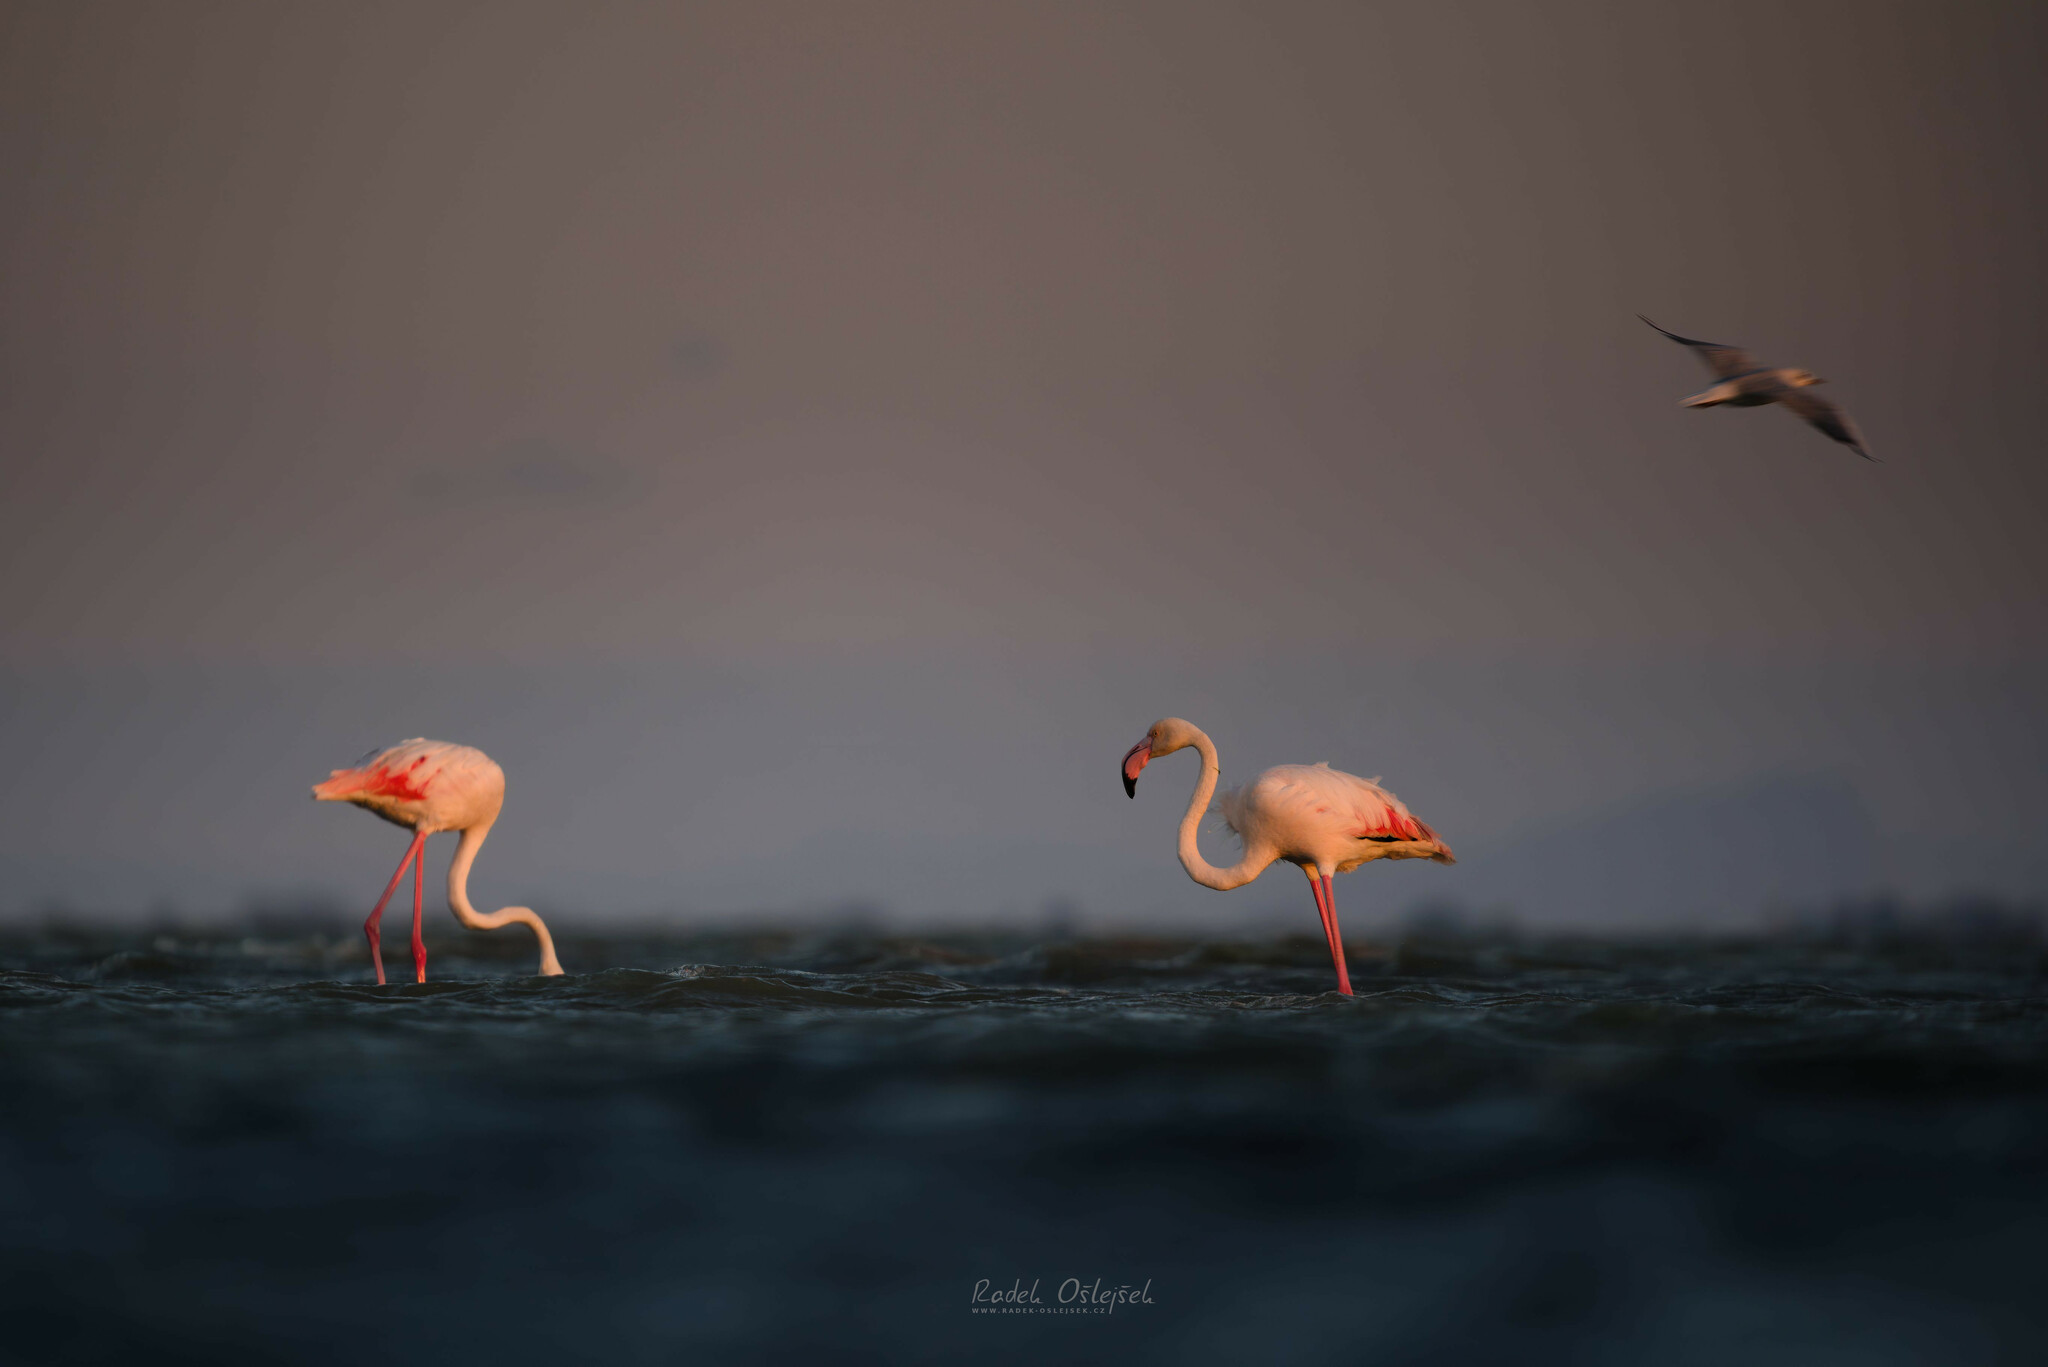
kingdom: Animalia
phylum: Chordata
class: Aves
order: Phoenicopteriformes
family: Phoenicopteridae
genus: Phoenicopterus
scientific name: Phoenicopterus roseus
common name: Greater flamingo
